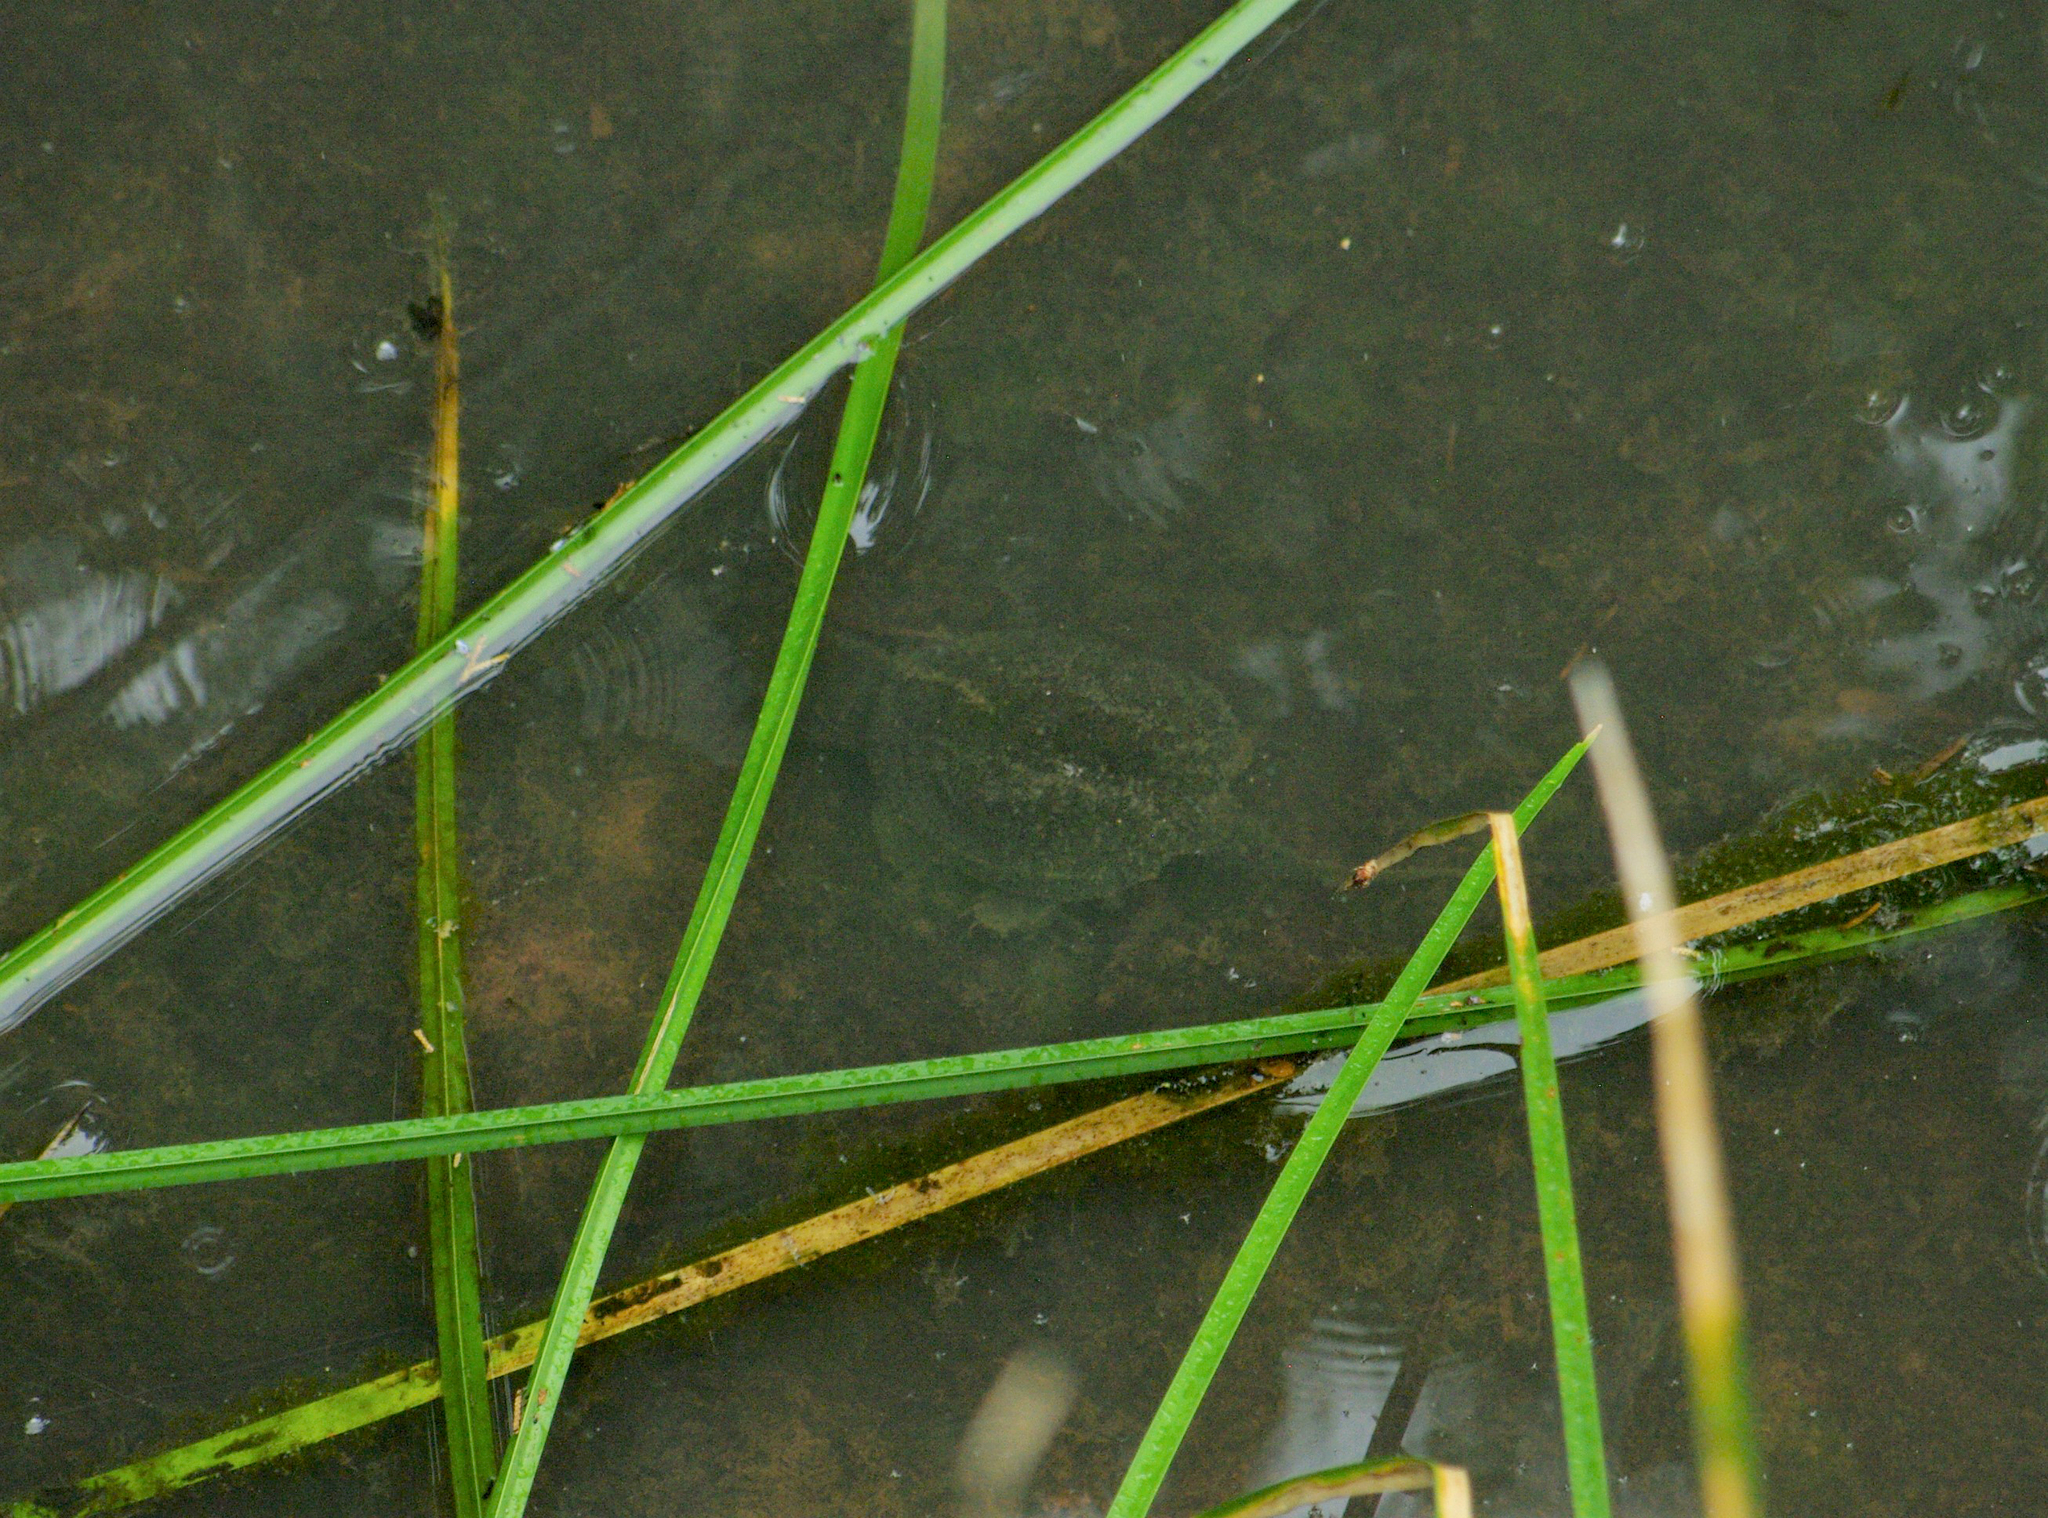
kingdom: Animalia
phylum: Chordata
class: Testudines
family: Chelydridae
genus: Chelydra
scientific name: Chelydra serpentina
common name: Common snapping turtle
